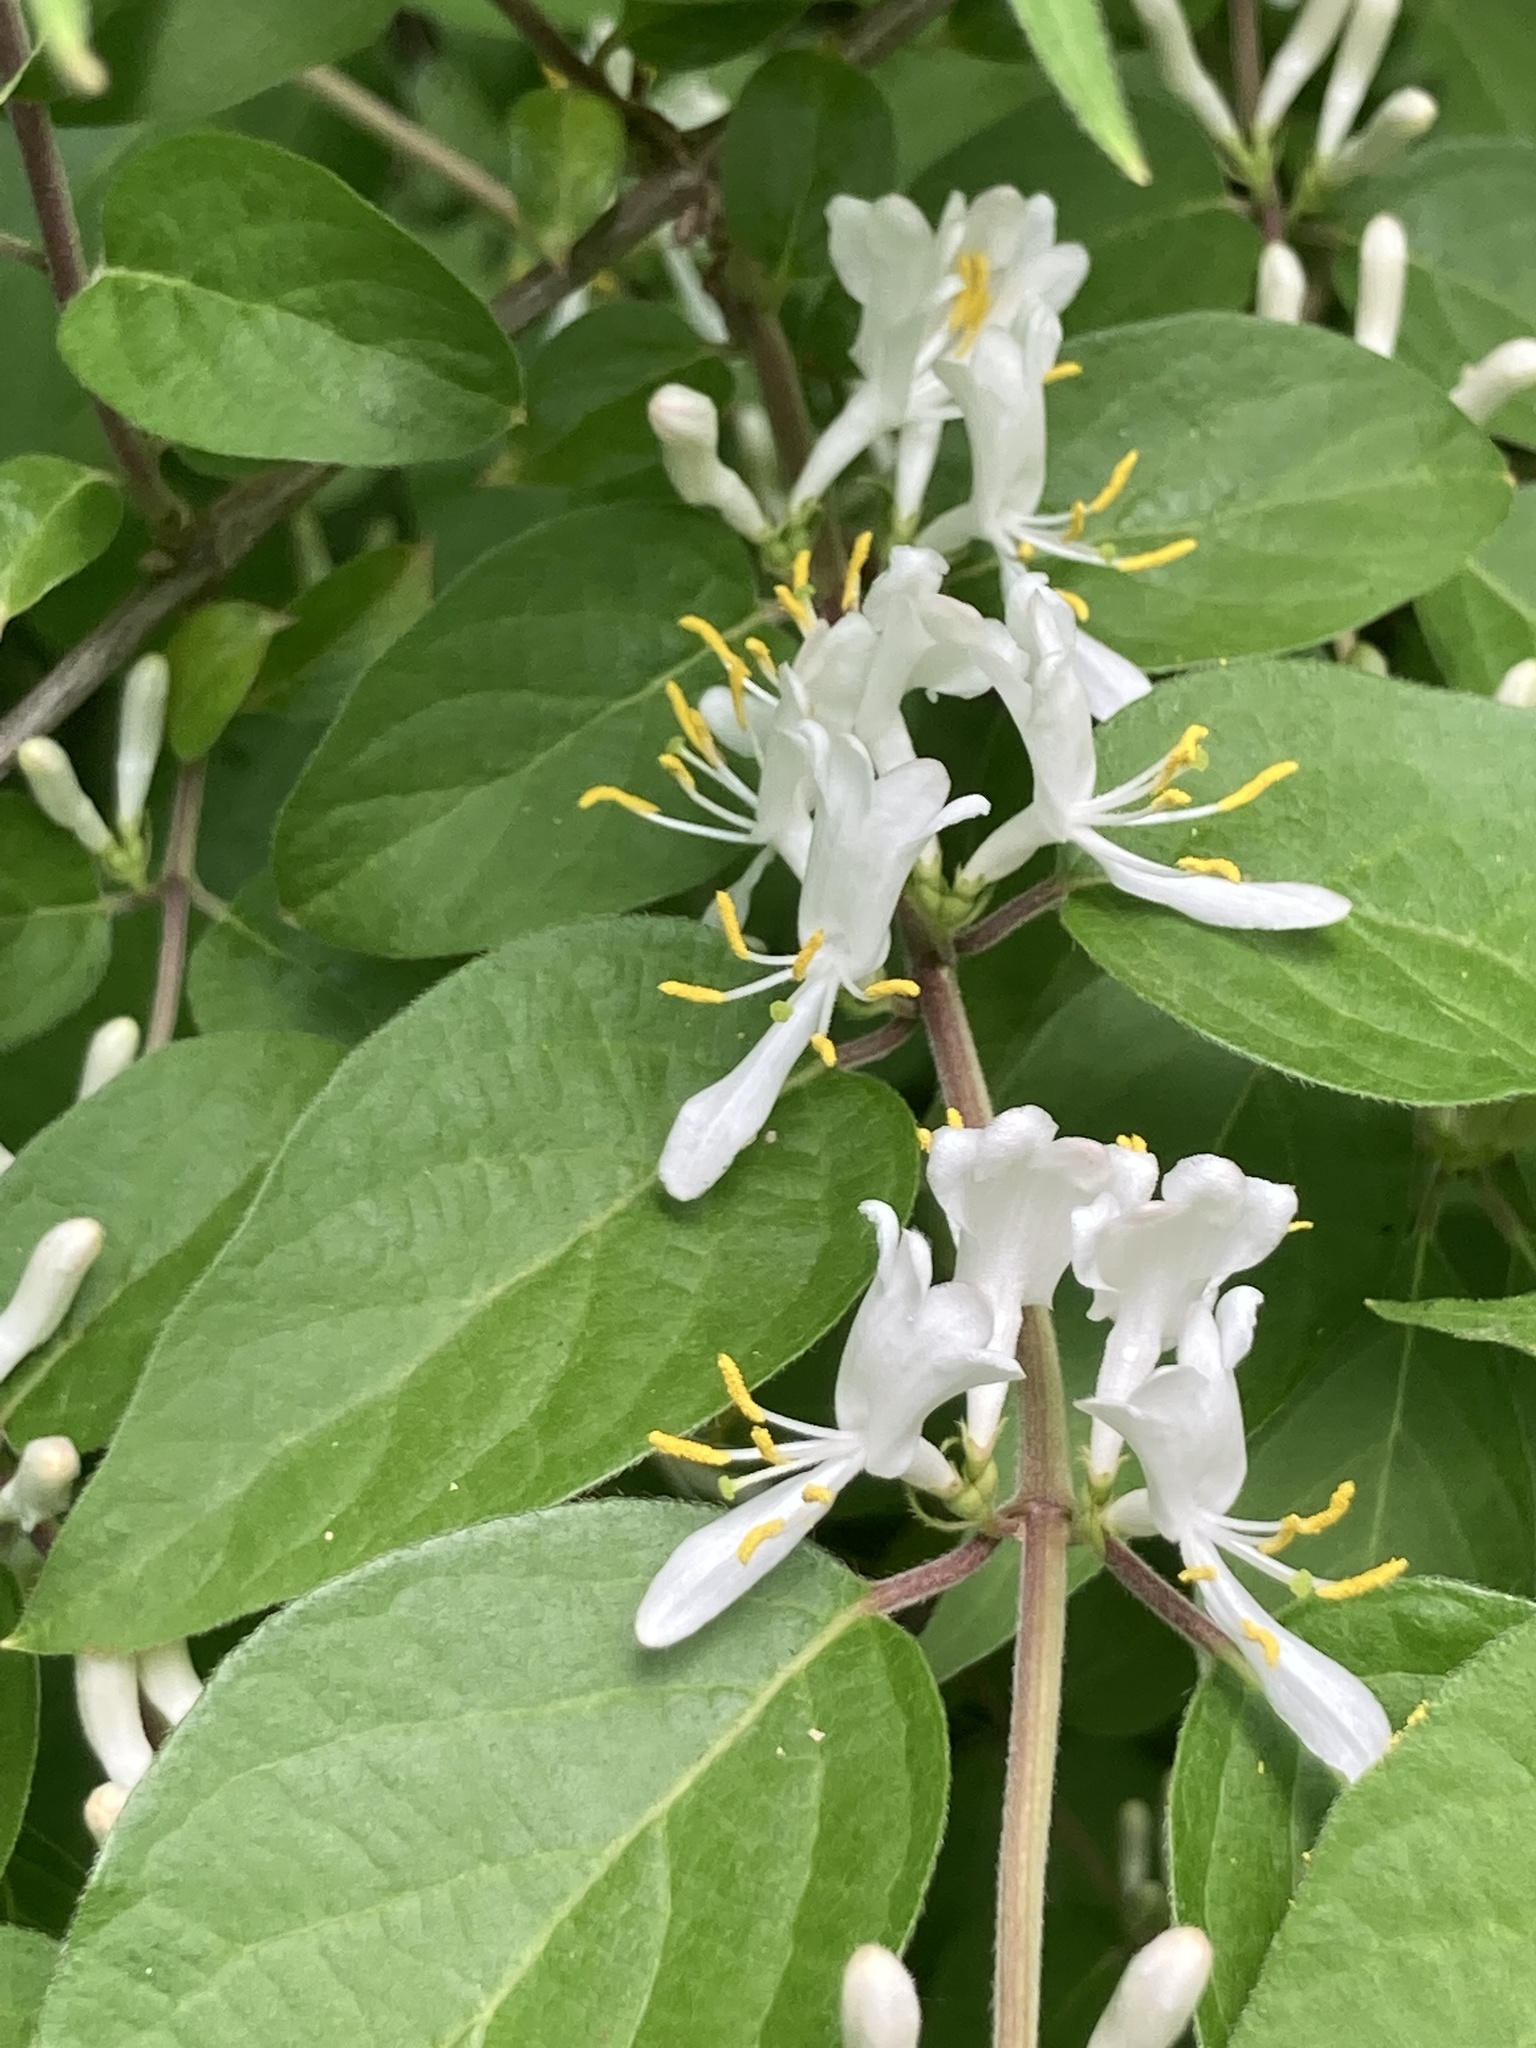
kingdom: Plantae
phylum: Tracheophyta
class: Magnoliopsida
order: Dipsacales
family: Caprifoliaceae
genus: Lonicera
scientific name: Lonicera maackii
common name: Amur honeysuckle
